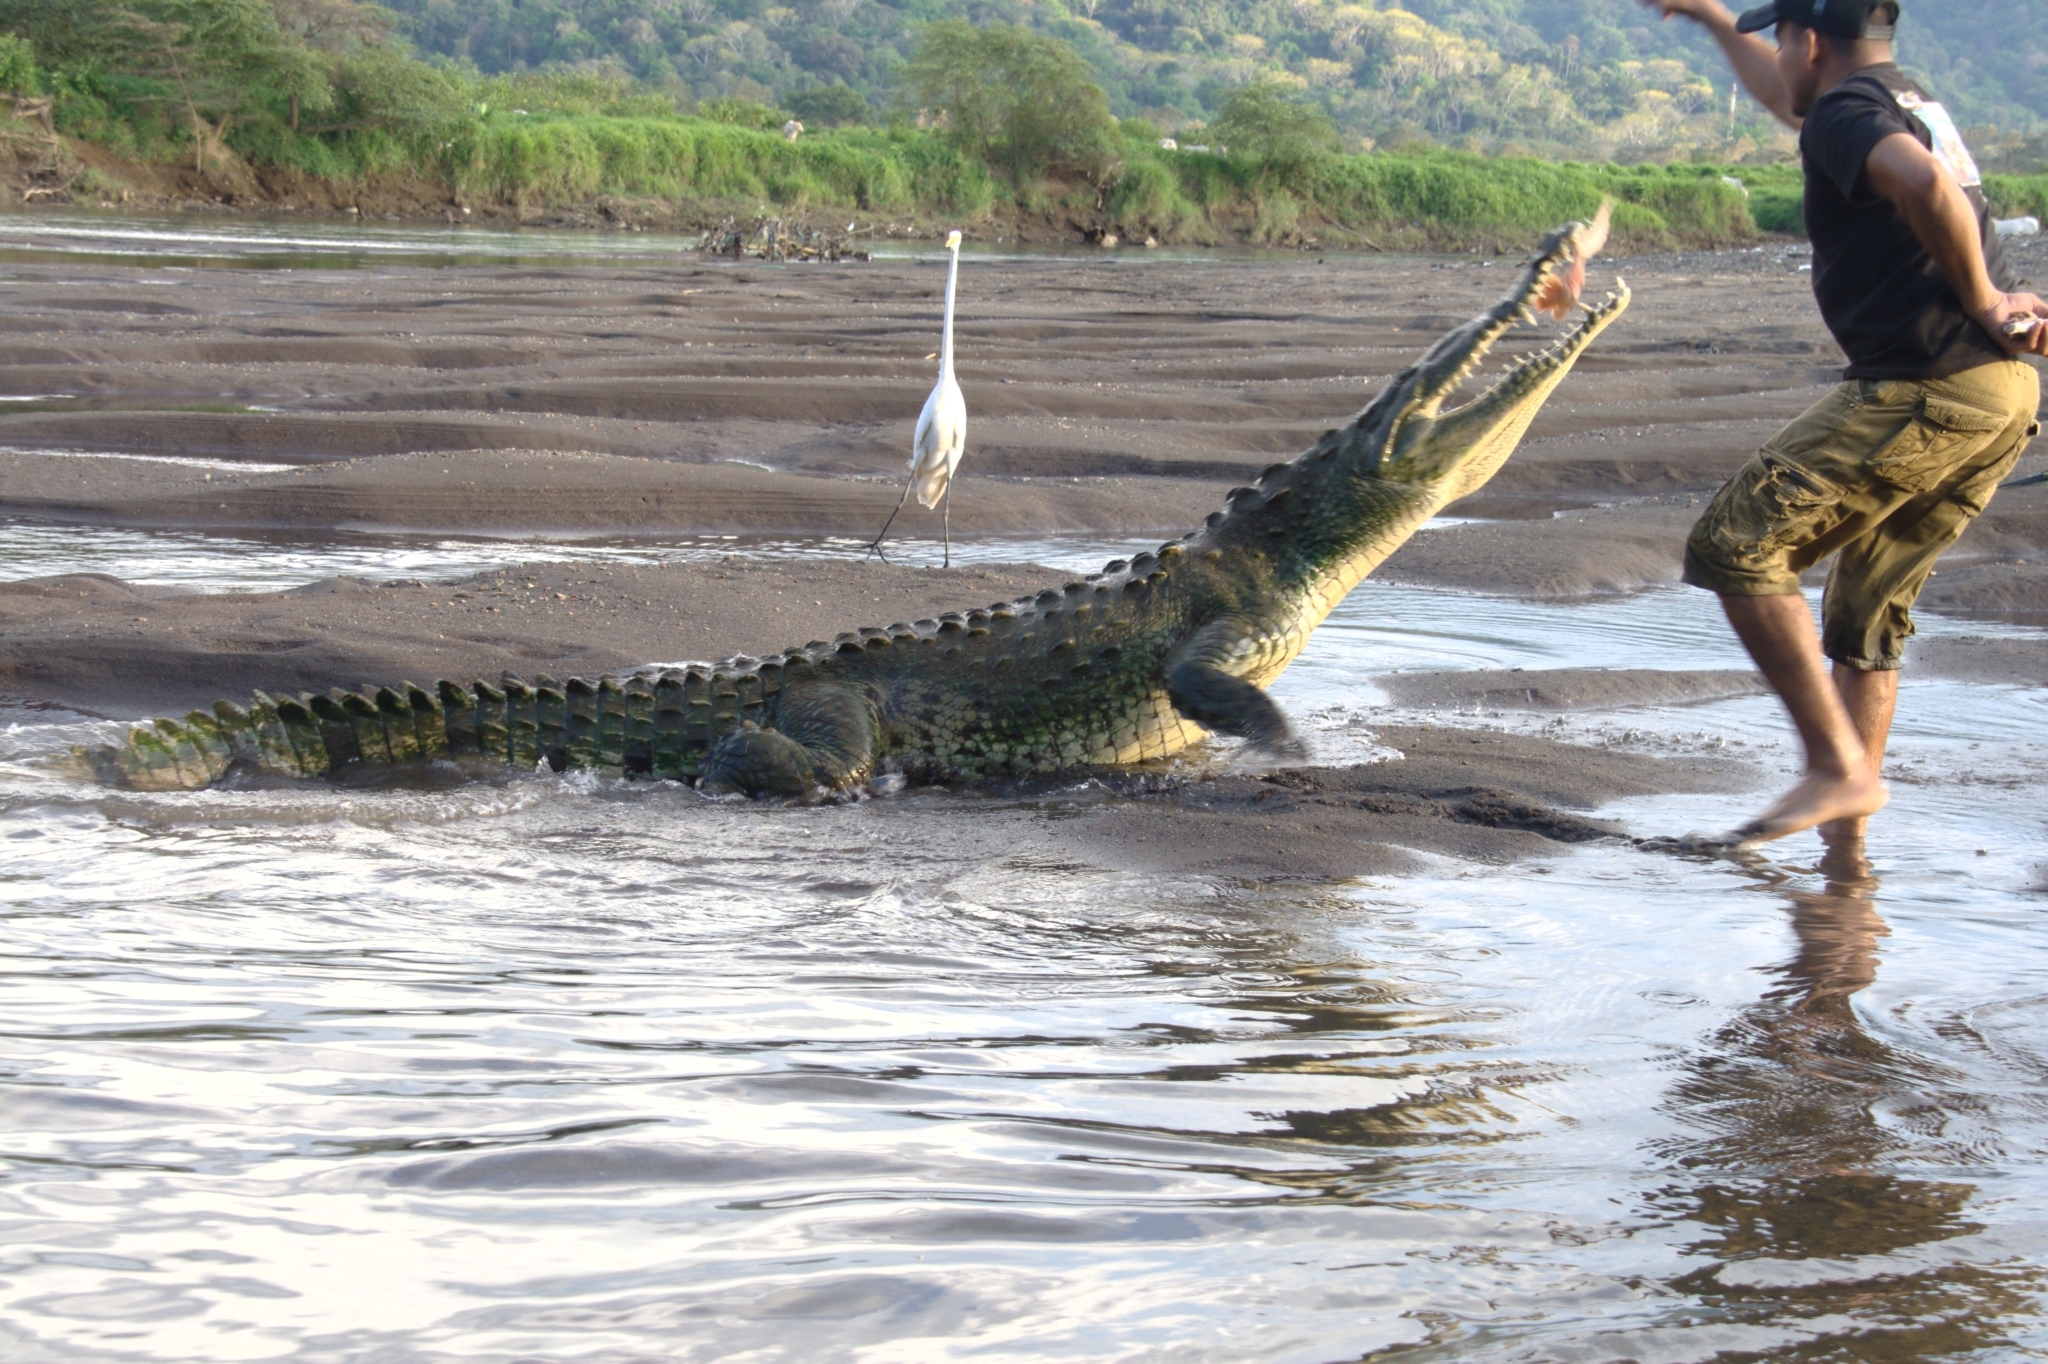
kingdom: Animalia
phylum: Chordata
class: Crocodylia
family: Crocodylidae
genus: Crocodylus
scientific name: Crocodylus acutus
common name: American crocodile
